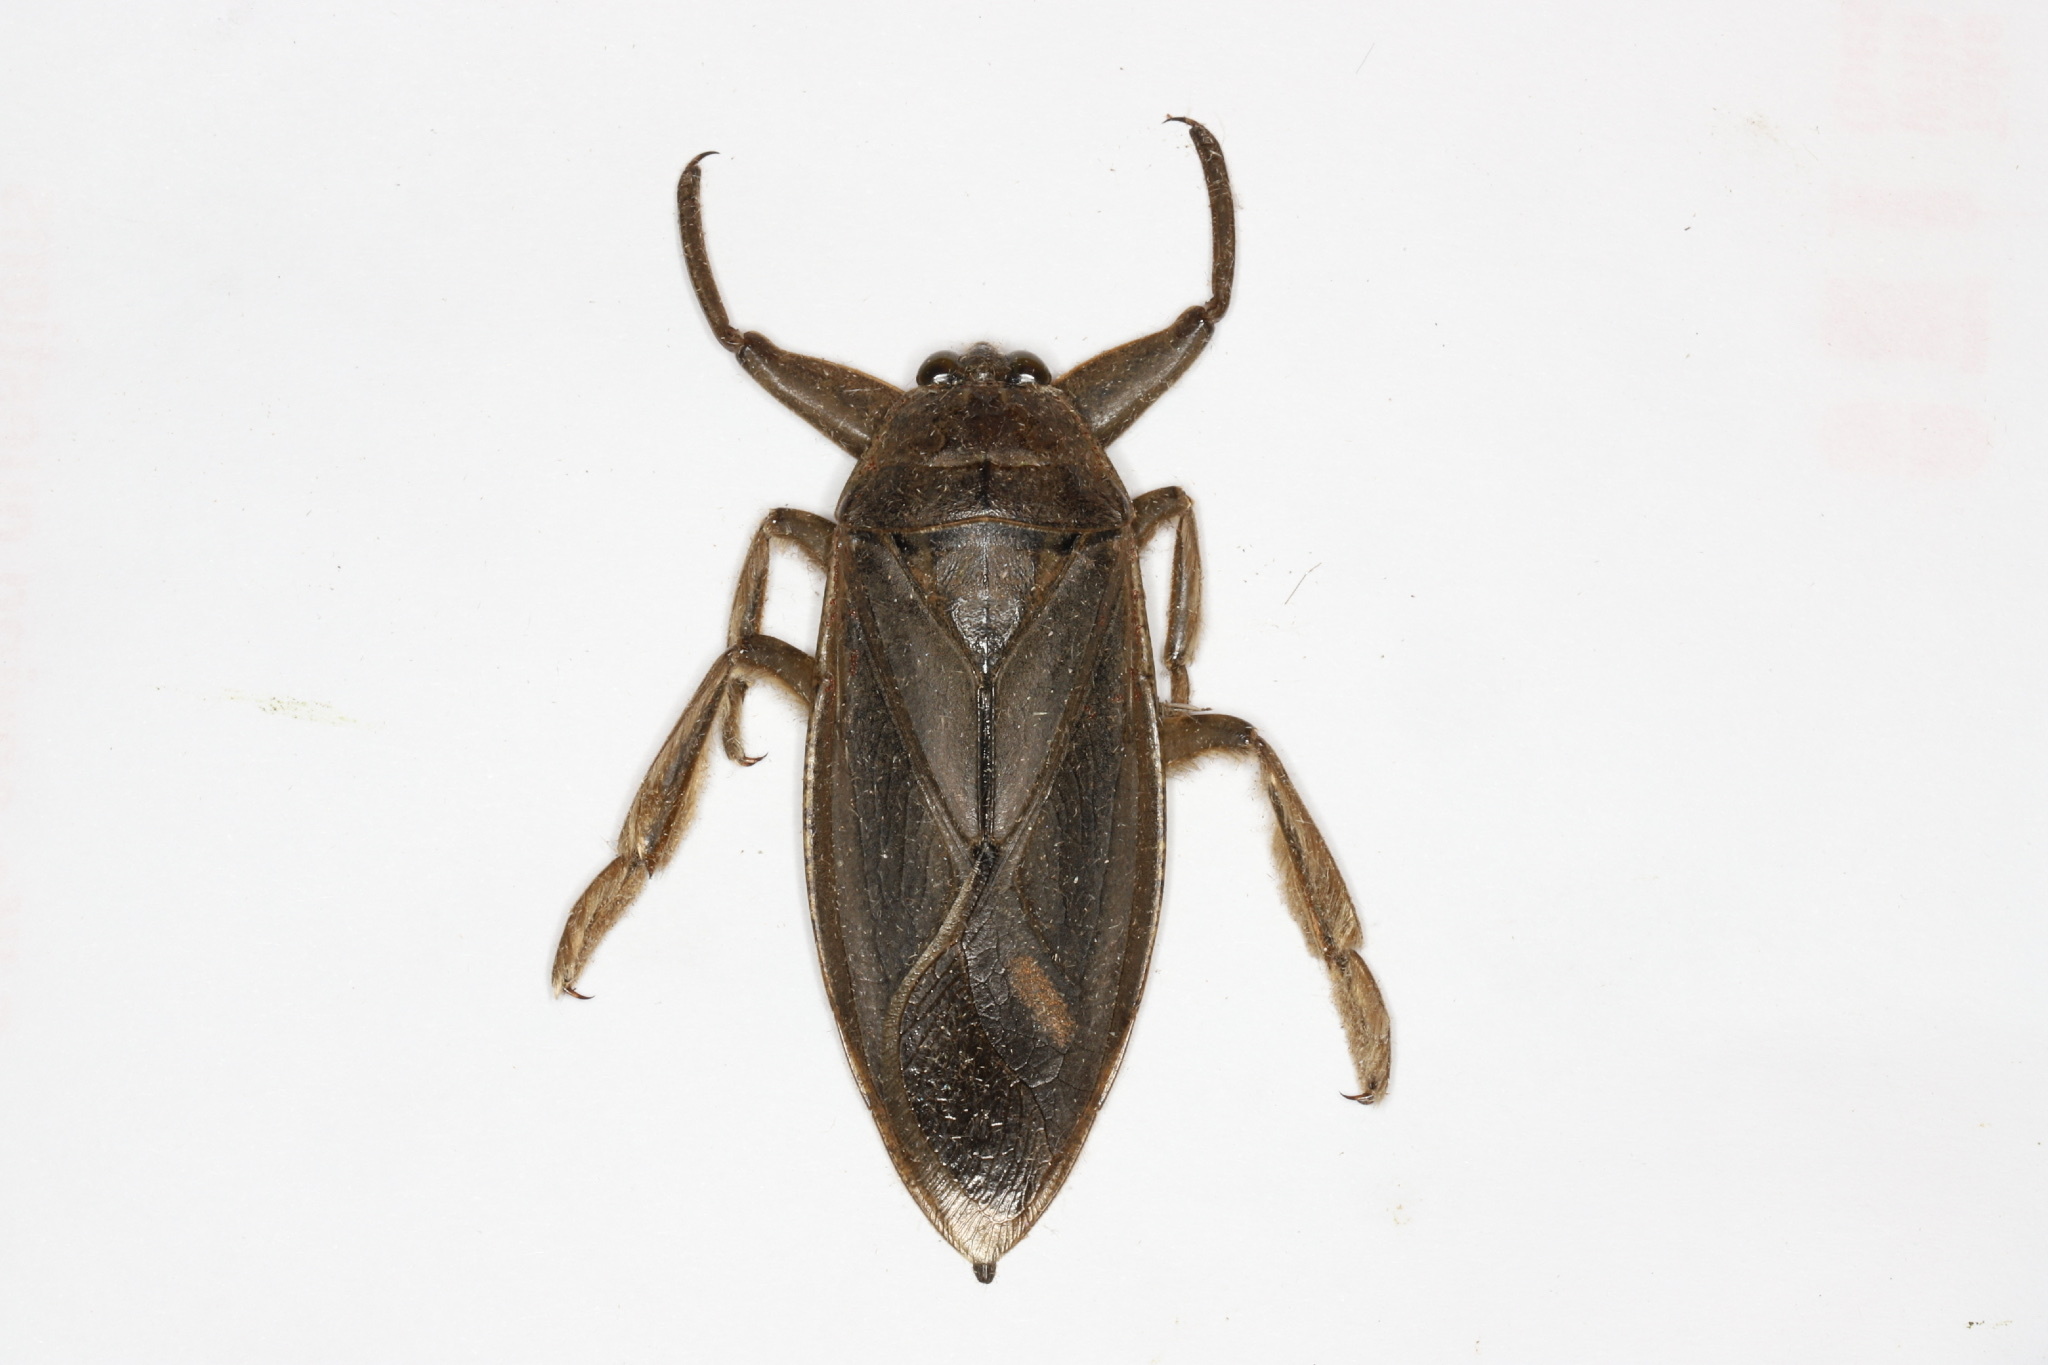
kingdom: Animalia
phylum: Arthropoda
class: Insecta
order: Hemiptera
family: Belostomatidae
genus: Lethocerus
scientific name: Lethocerus americanus
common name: Giant water bug
